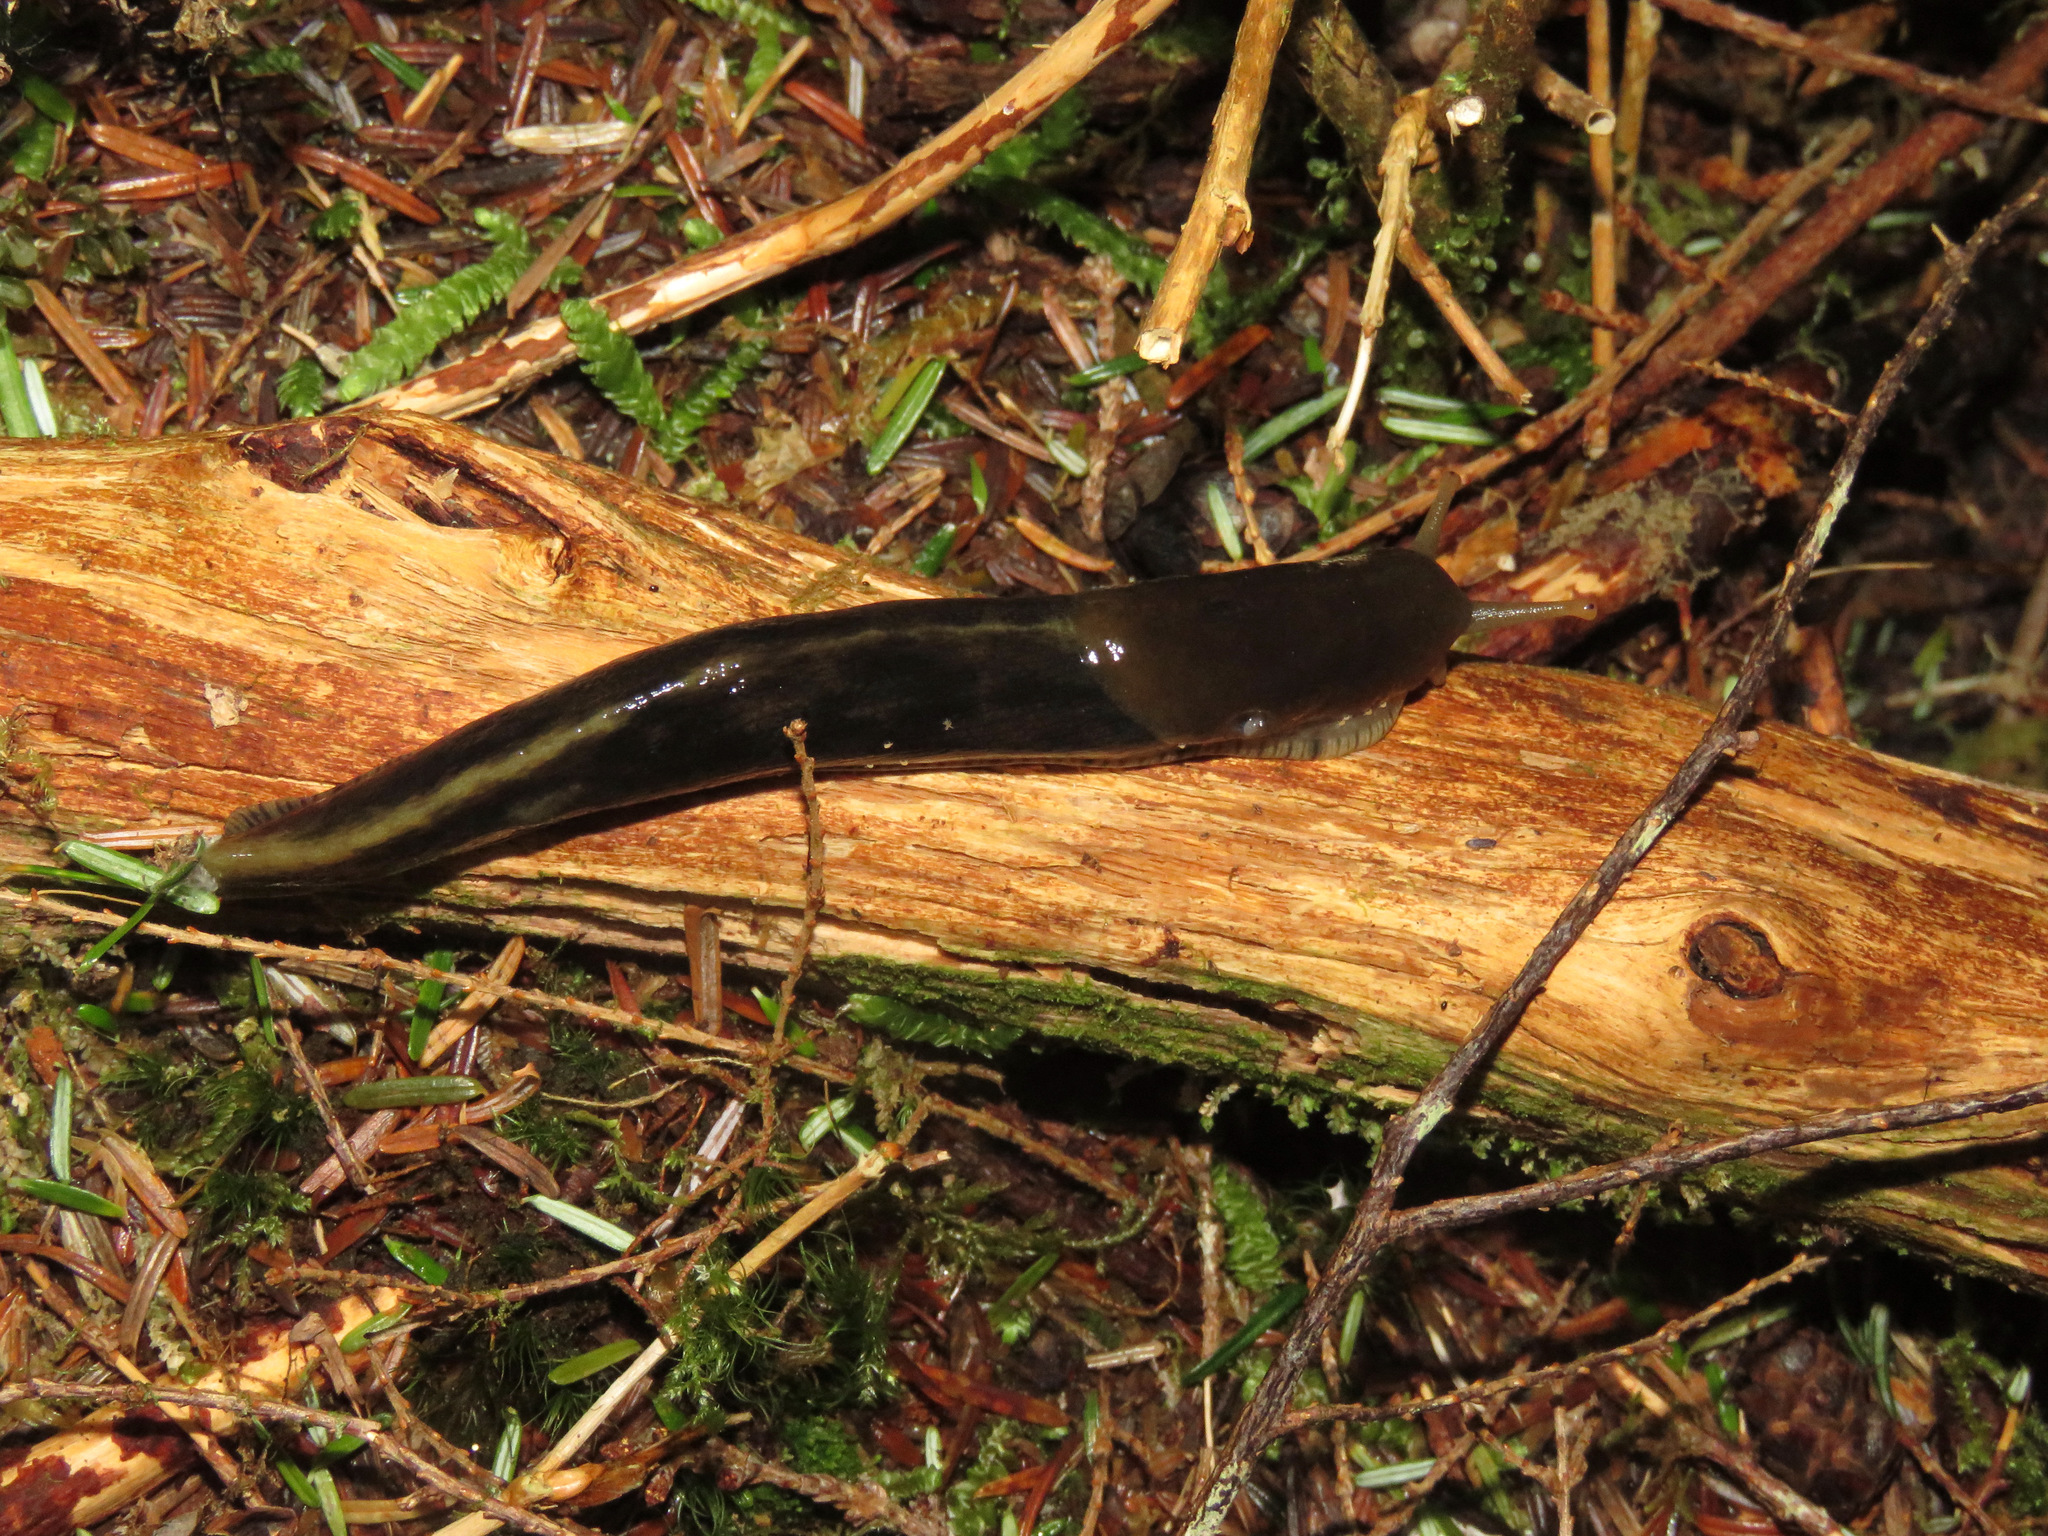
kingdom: Animalia
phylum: Mollusca
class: Gastropoda
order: Stylommatophora
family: Ariolimacidae
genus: Ariolimax
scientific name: Ariolimax columbianus
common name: Pacific banana slug
